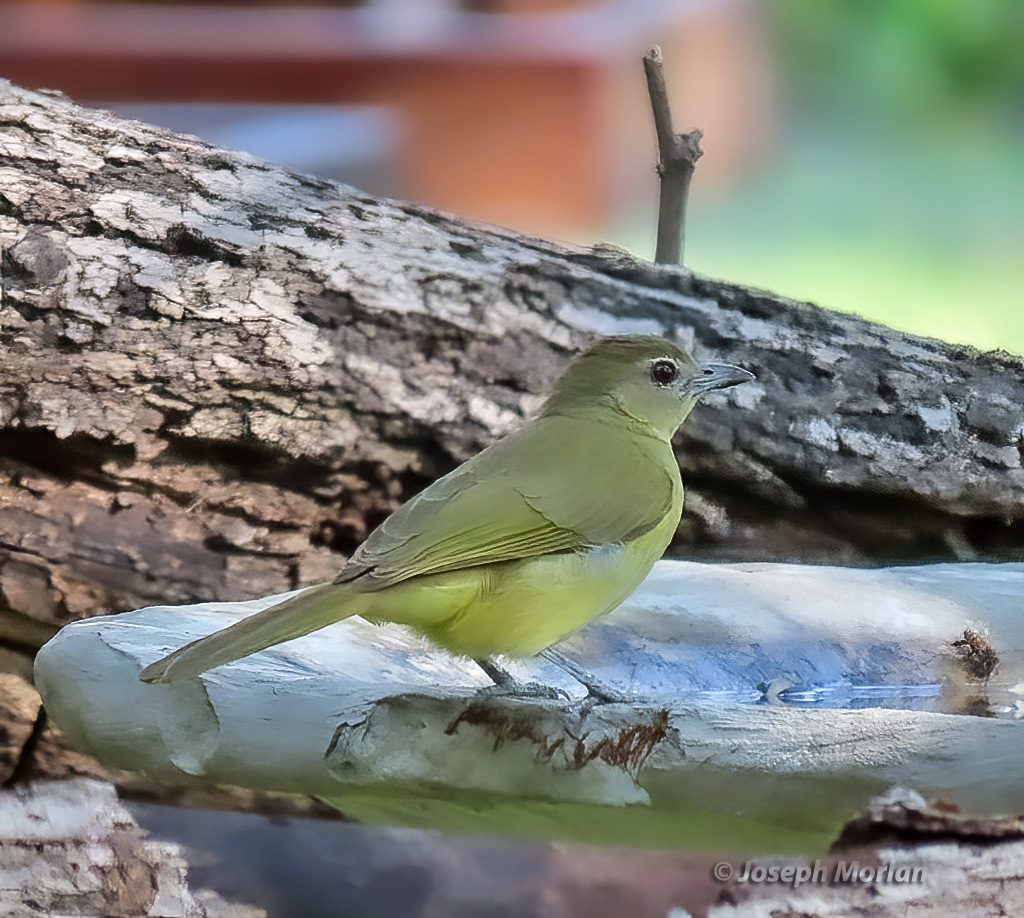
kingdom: Animalia
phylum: Chordata
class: Aves
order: Passeriformes
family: Pycnonotidae
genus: Chlorocichla
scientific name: Chlorocichla flaviventris
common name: Yellow-bellied greenbul
